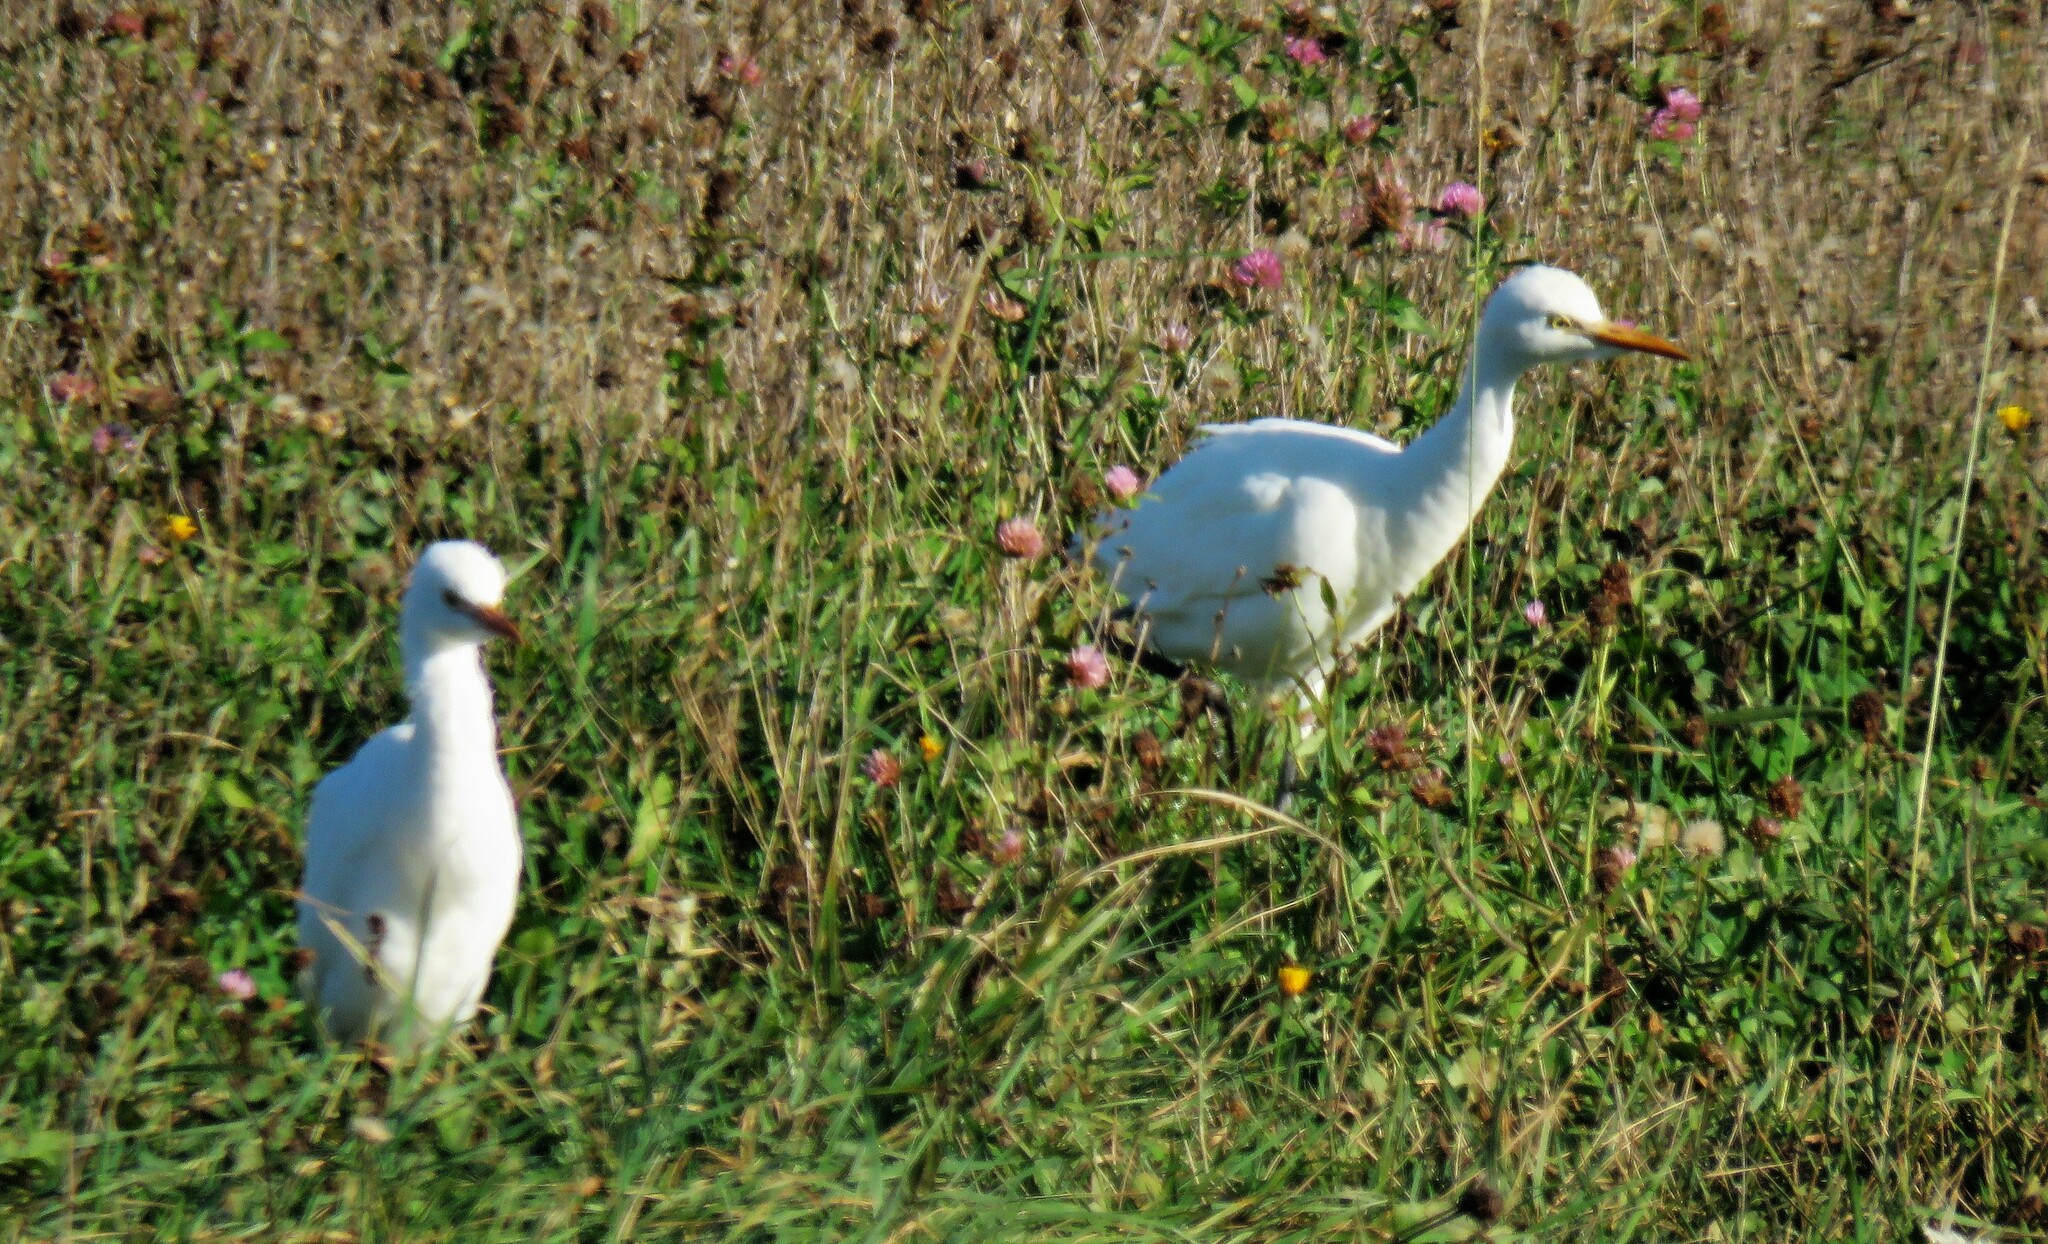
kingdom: Animalia
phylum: Chordata
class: Aves
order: Pelecaniformes
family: Ardeidae
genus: Bubulcus
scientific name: Bubulcus ibis
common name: Cattle egret
